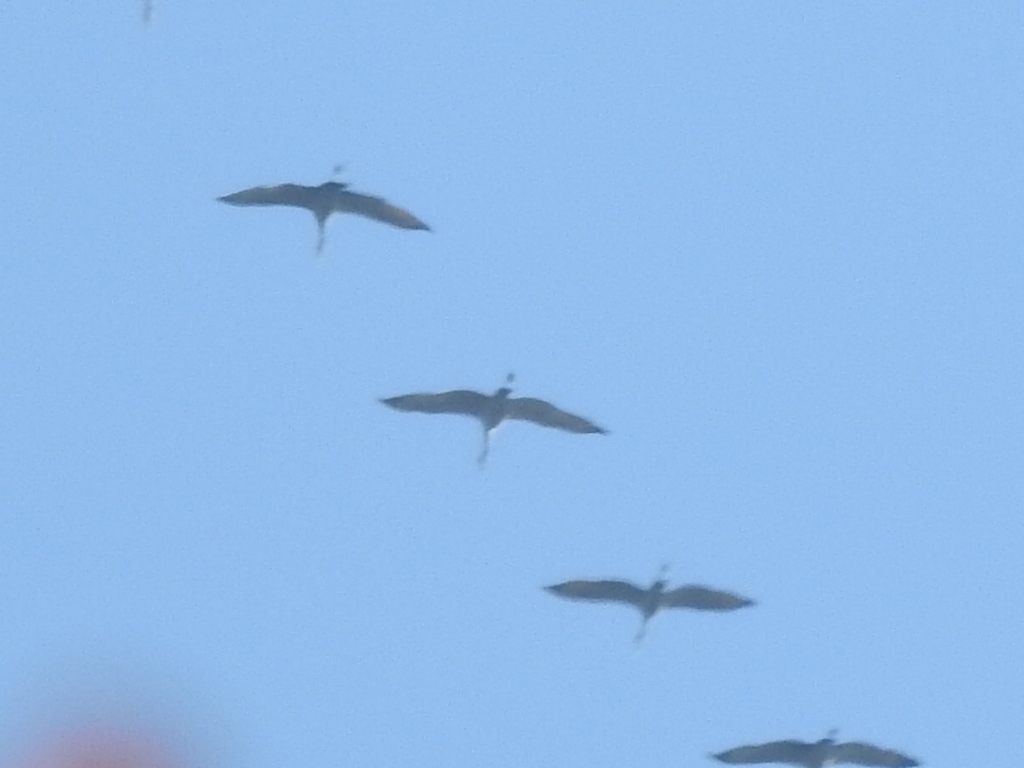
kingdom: Animalia
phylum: Chordata
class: Aves
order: Gruiformes
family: Gruidae
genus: Grus
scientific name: Grus canadensis
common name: Sandhill crane
